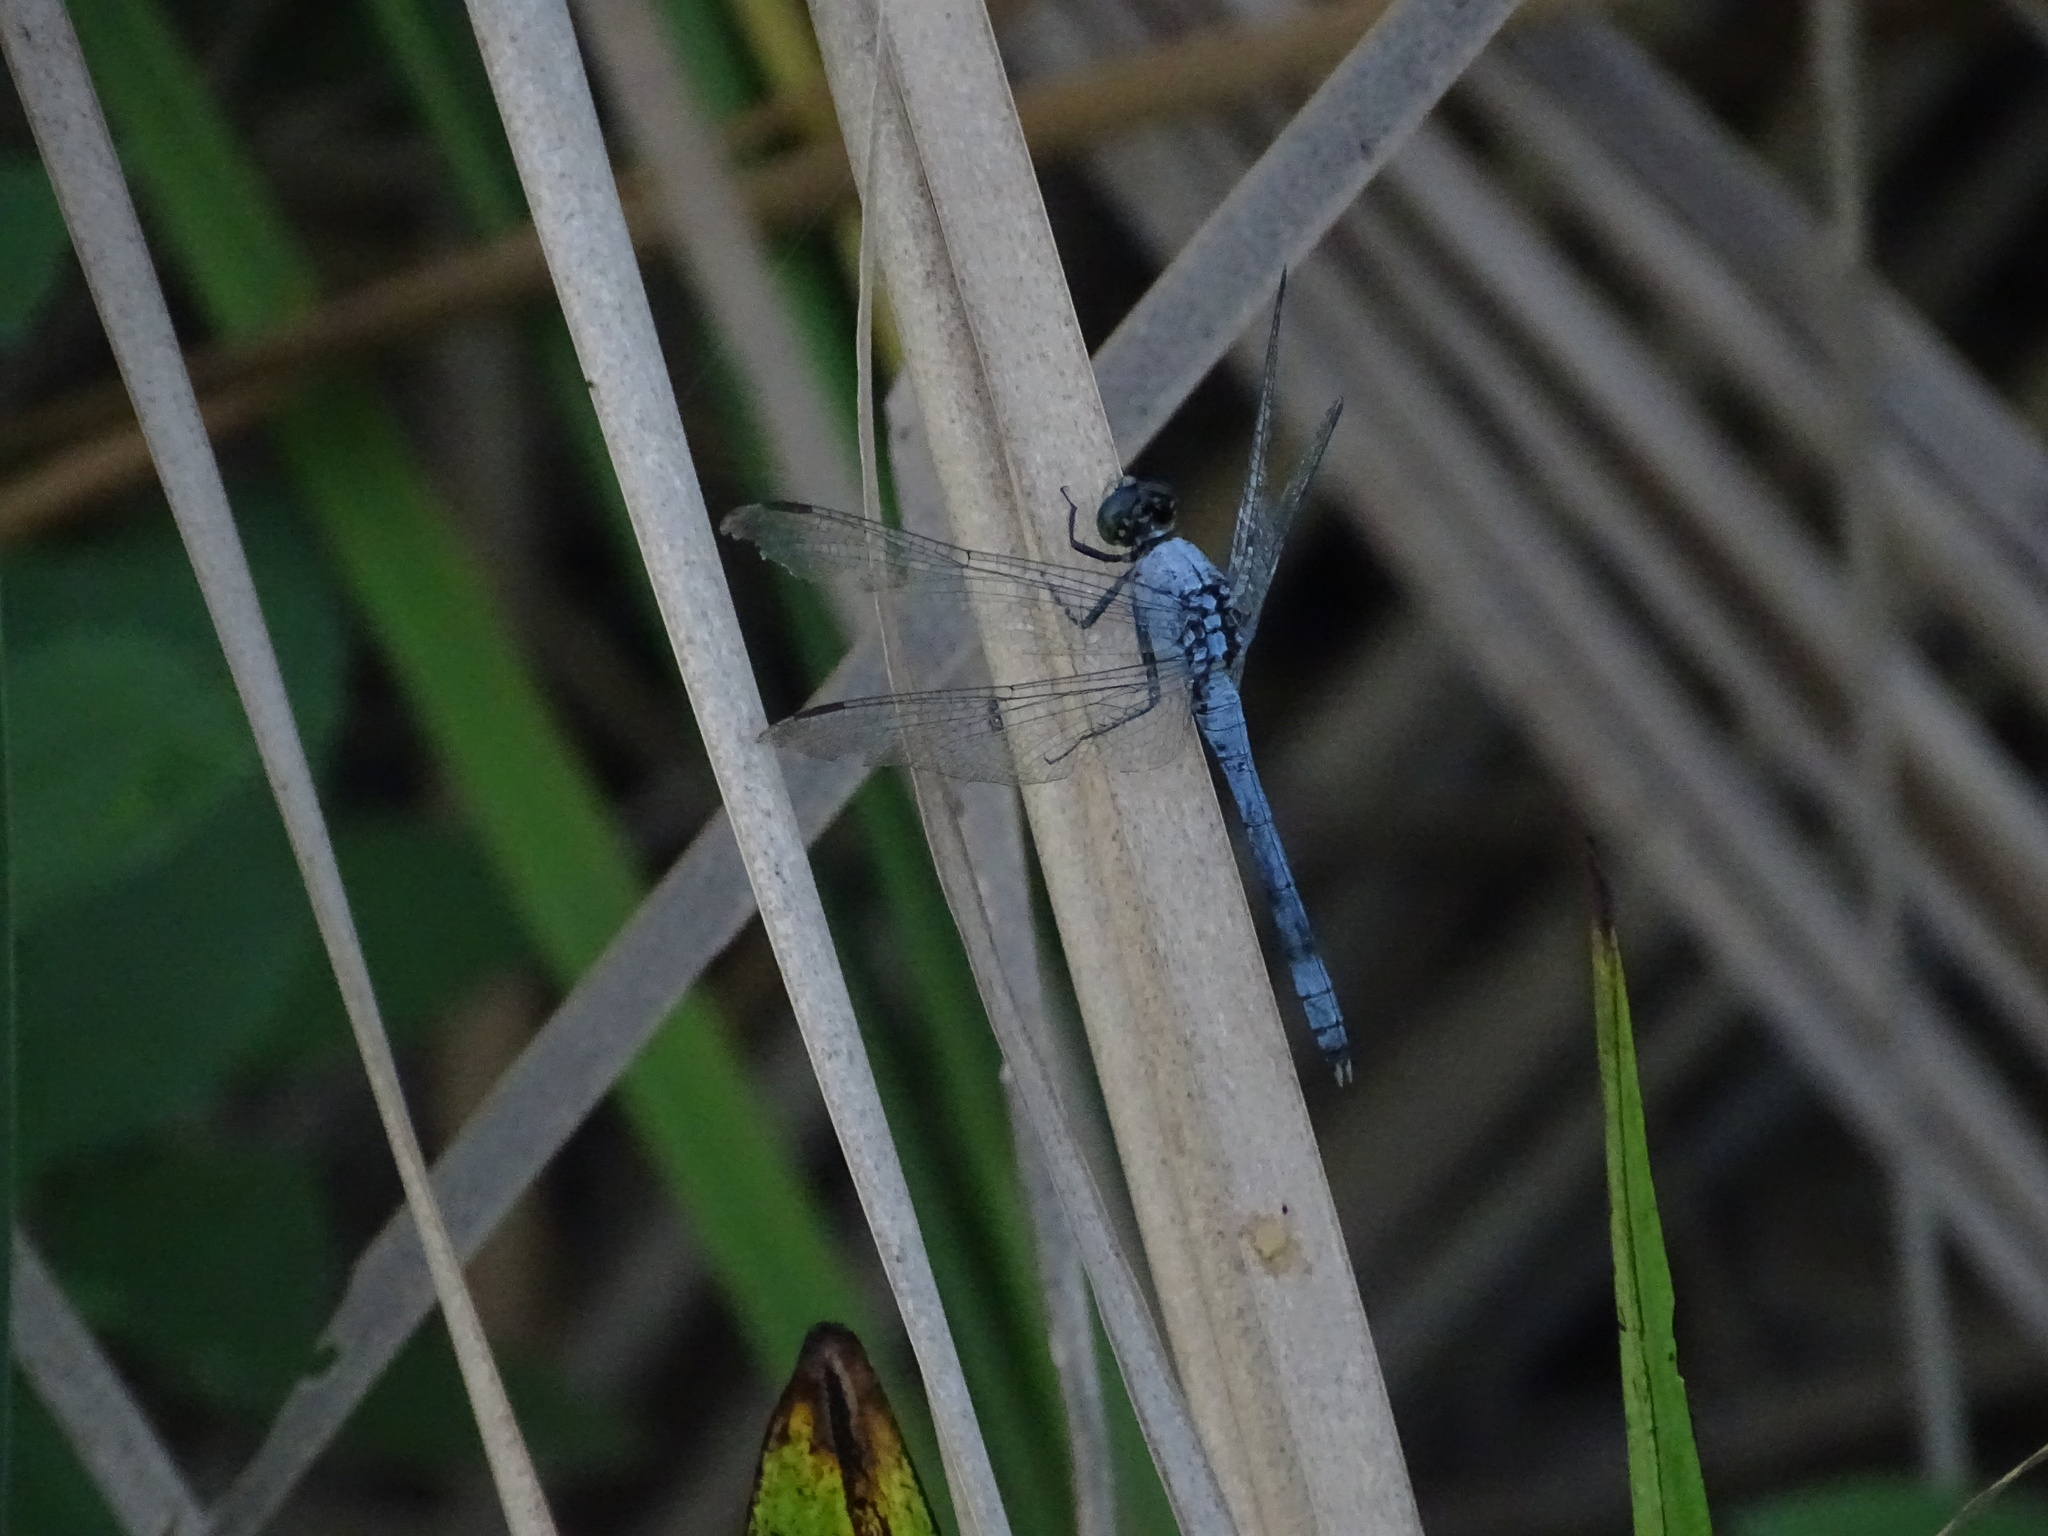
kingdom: Animalia
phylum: Arthropoda
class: Insecta
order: Odonata
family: Libellulidae
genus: Erythemis
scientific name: Erythemis simplicicollis
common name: Eastern pondhawk
